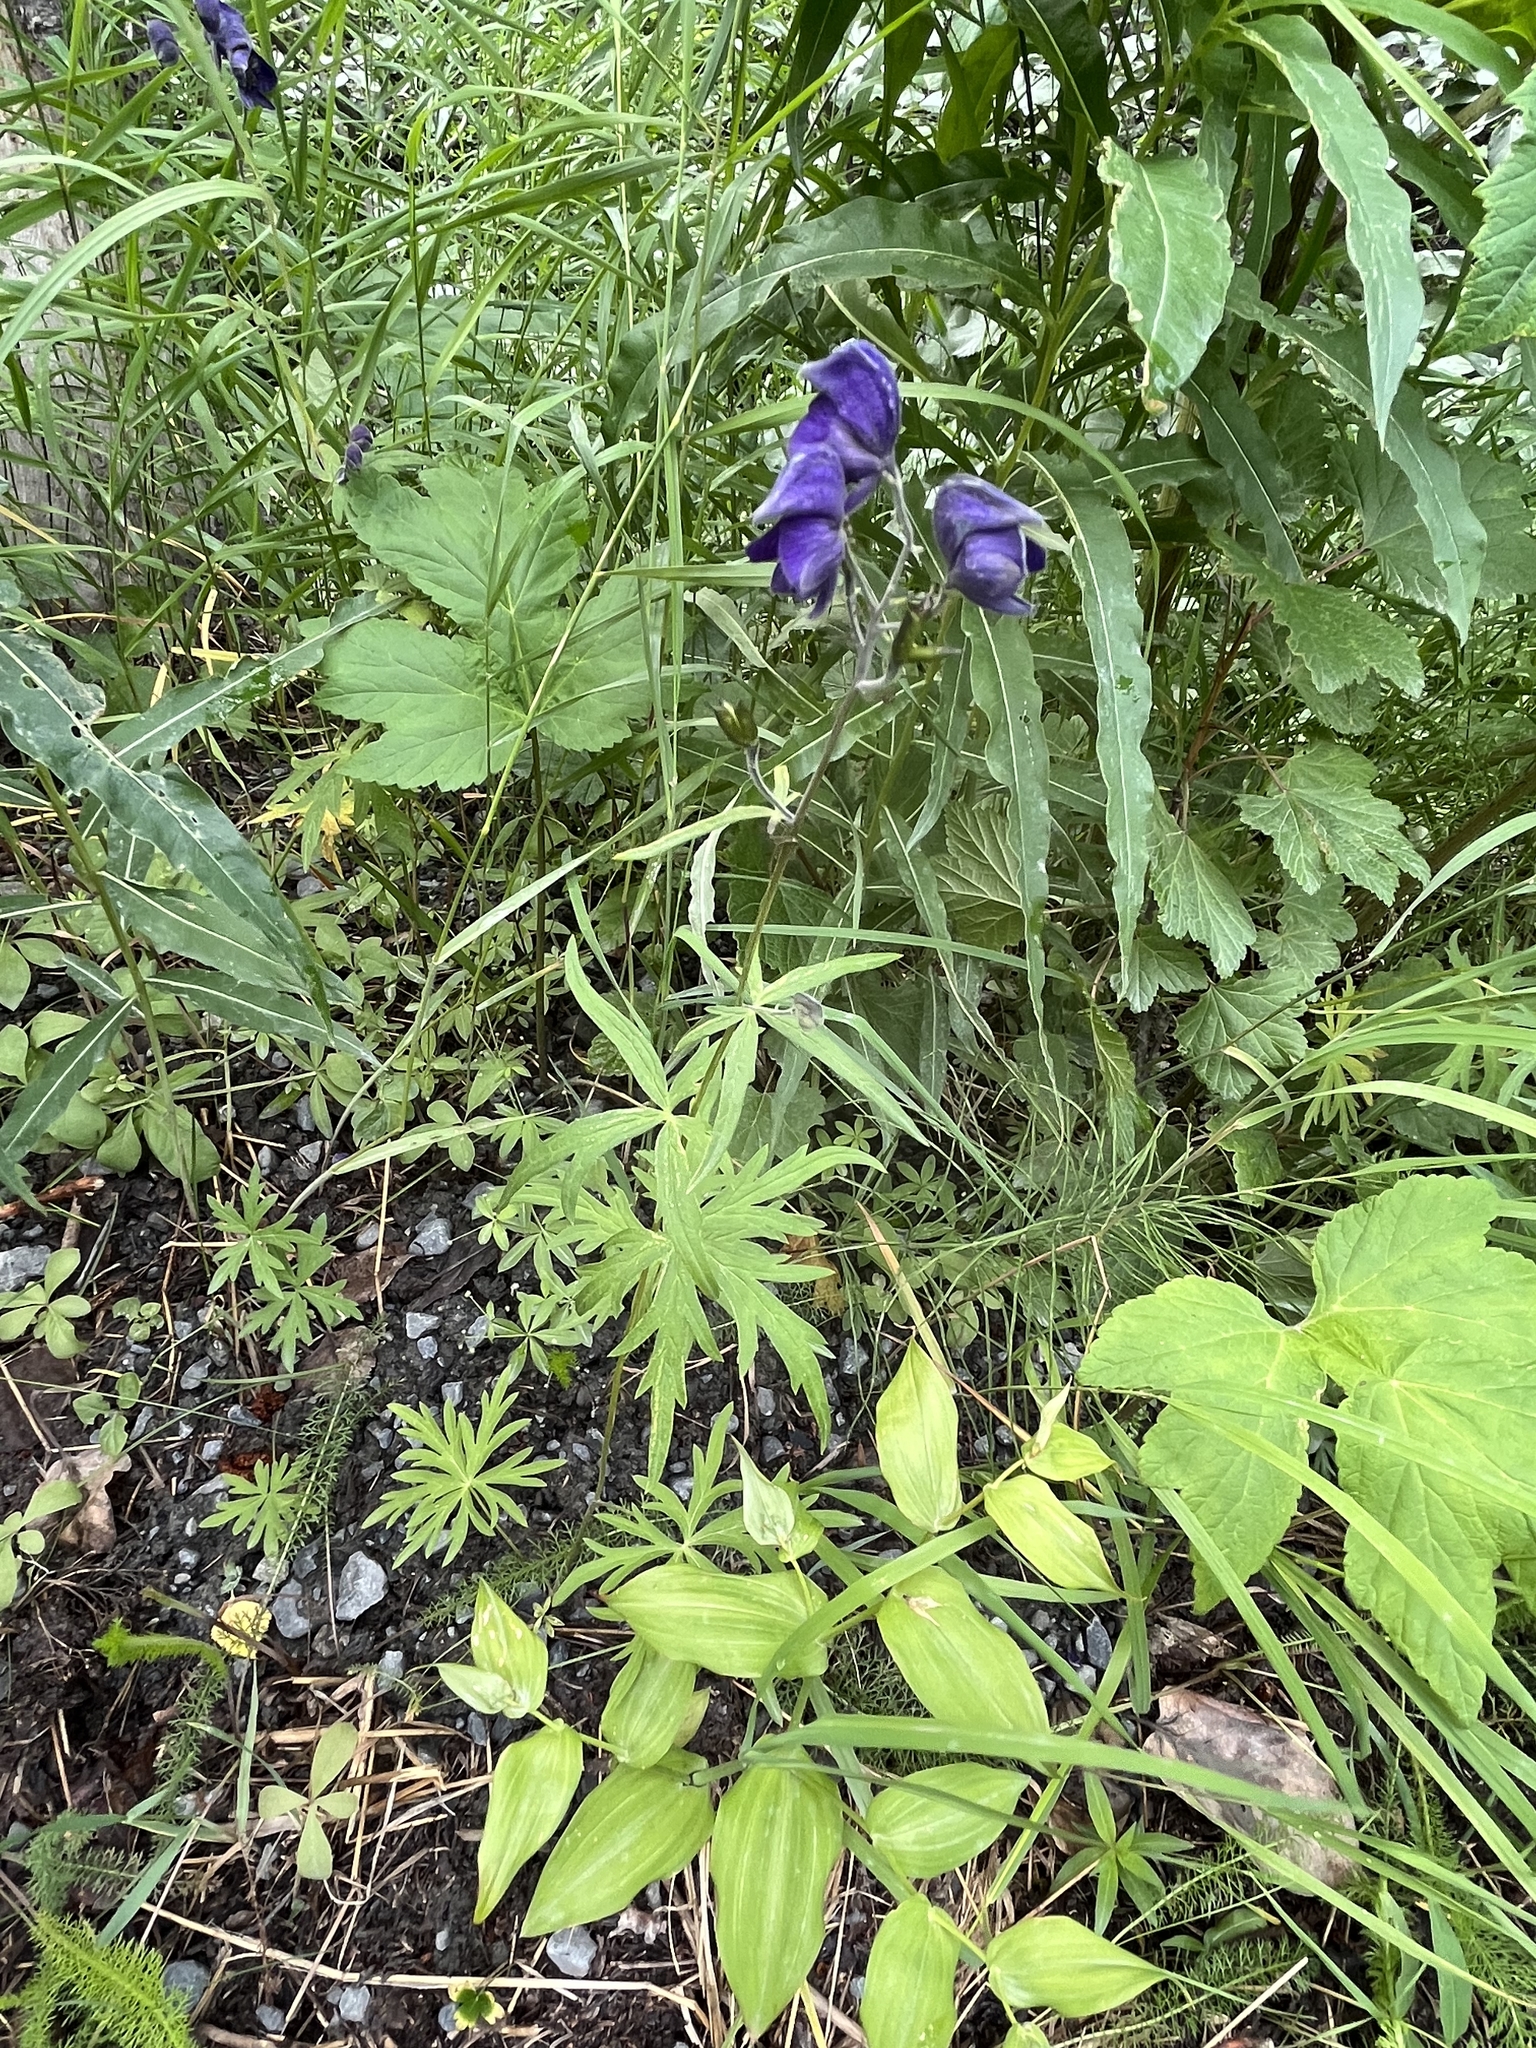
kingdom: Plantae
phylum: Tracheophyta
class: Magnoliopsida
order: Ranunculales
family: Ranunculaceae
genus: Aconitum
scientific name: Aconitum delphiniifolium
